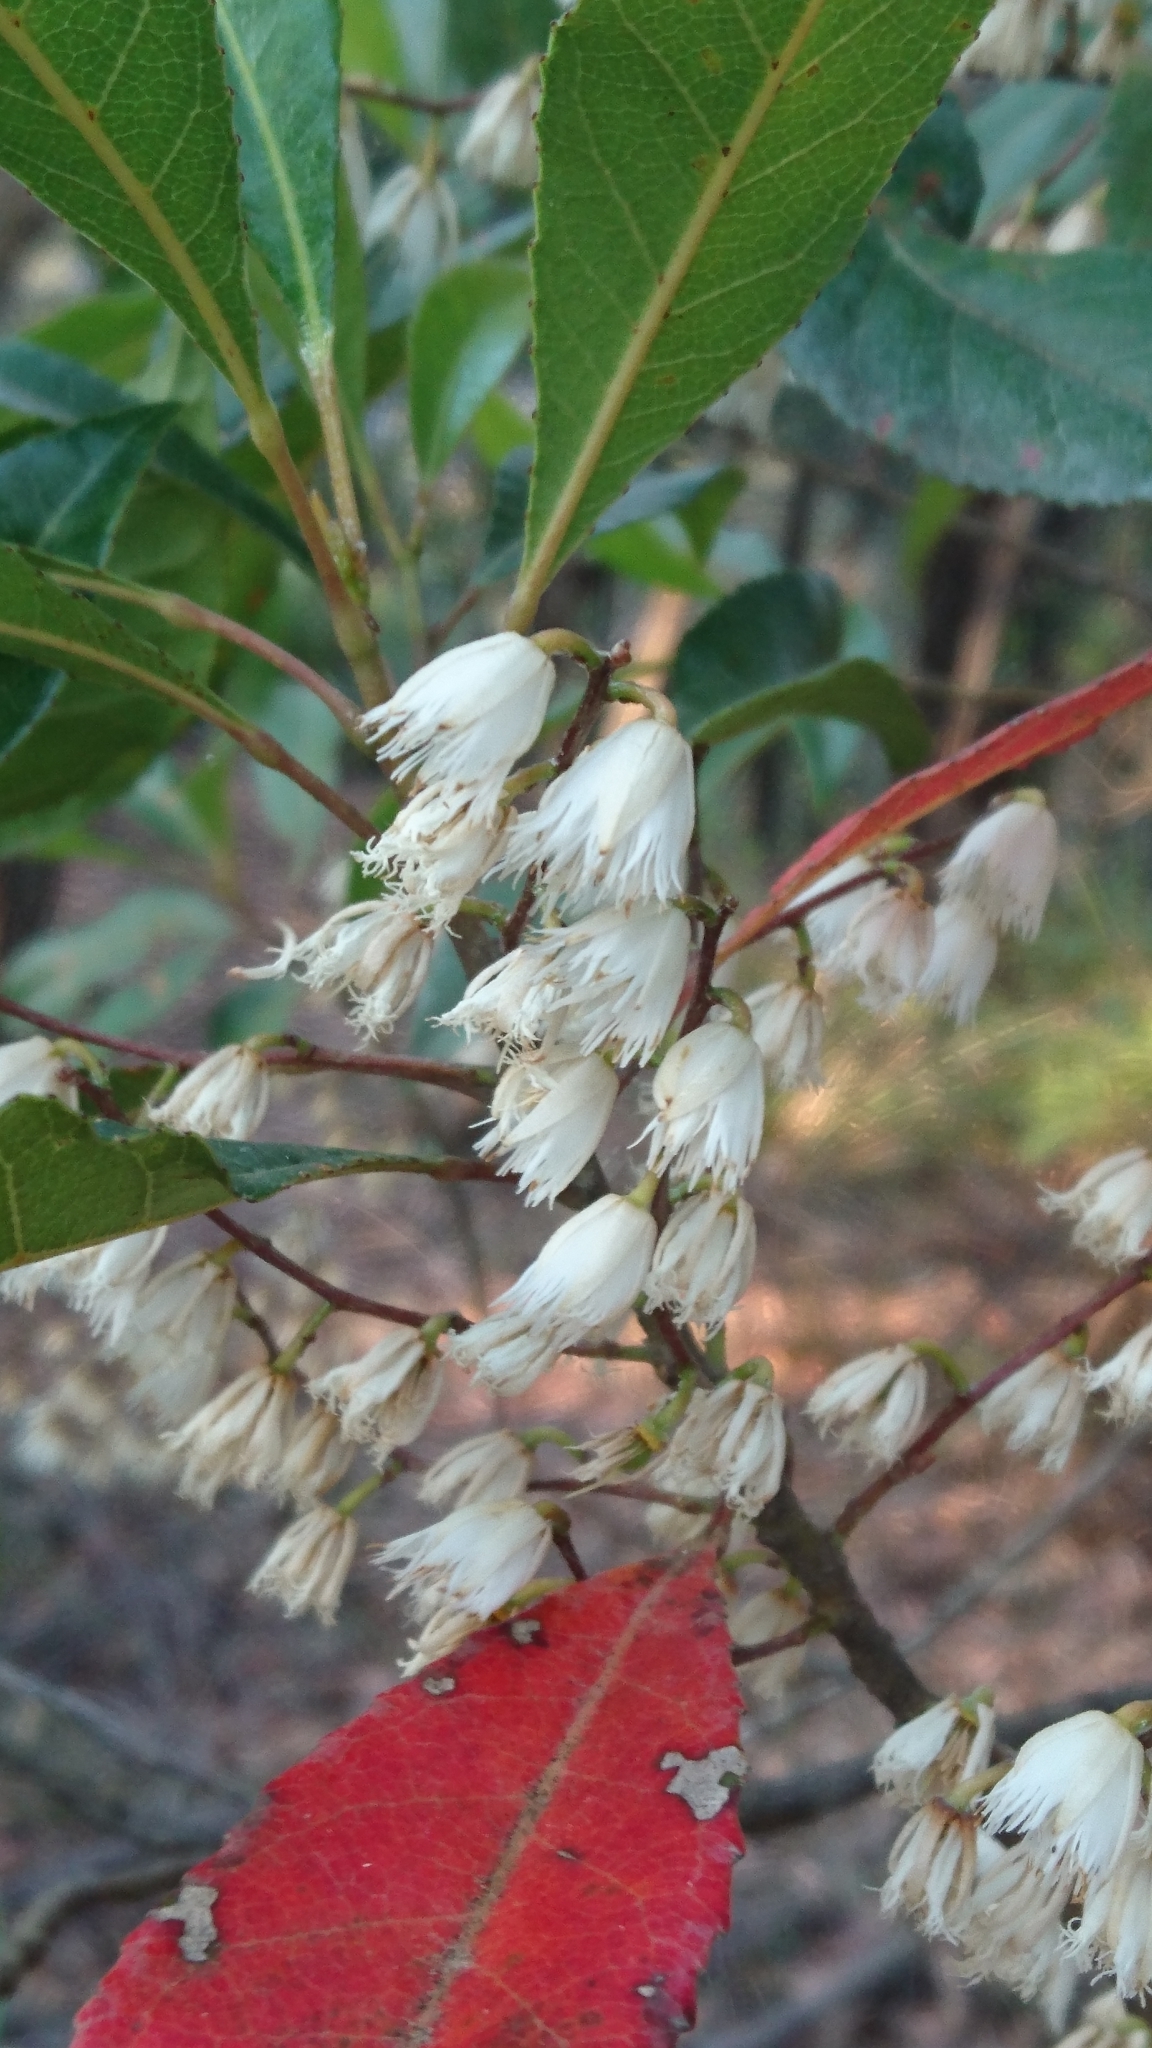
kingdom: Plantae
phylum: Tracheophyta
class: Magnoliopsida
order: Oxalidales
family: Elaeocarpaceae
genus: Elaeocarpus
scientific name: Elaeocarpus reticulatus
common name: Ash quandong
